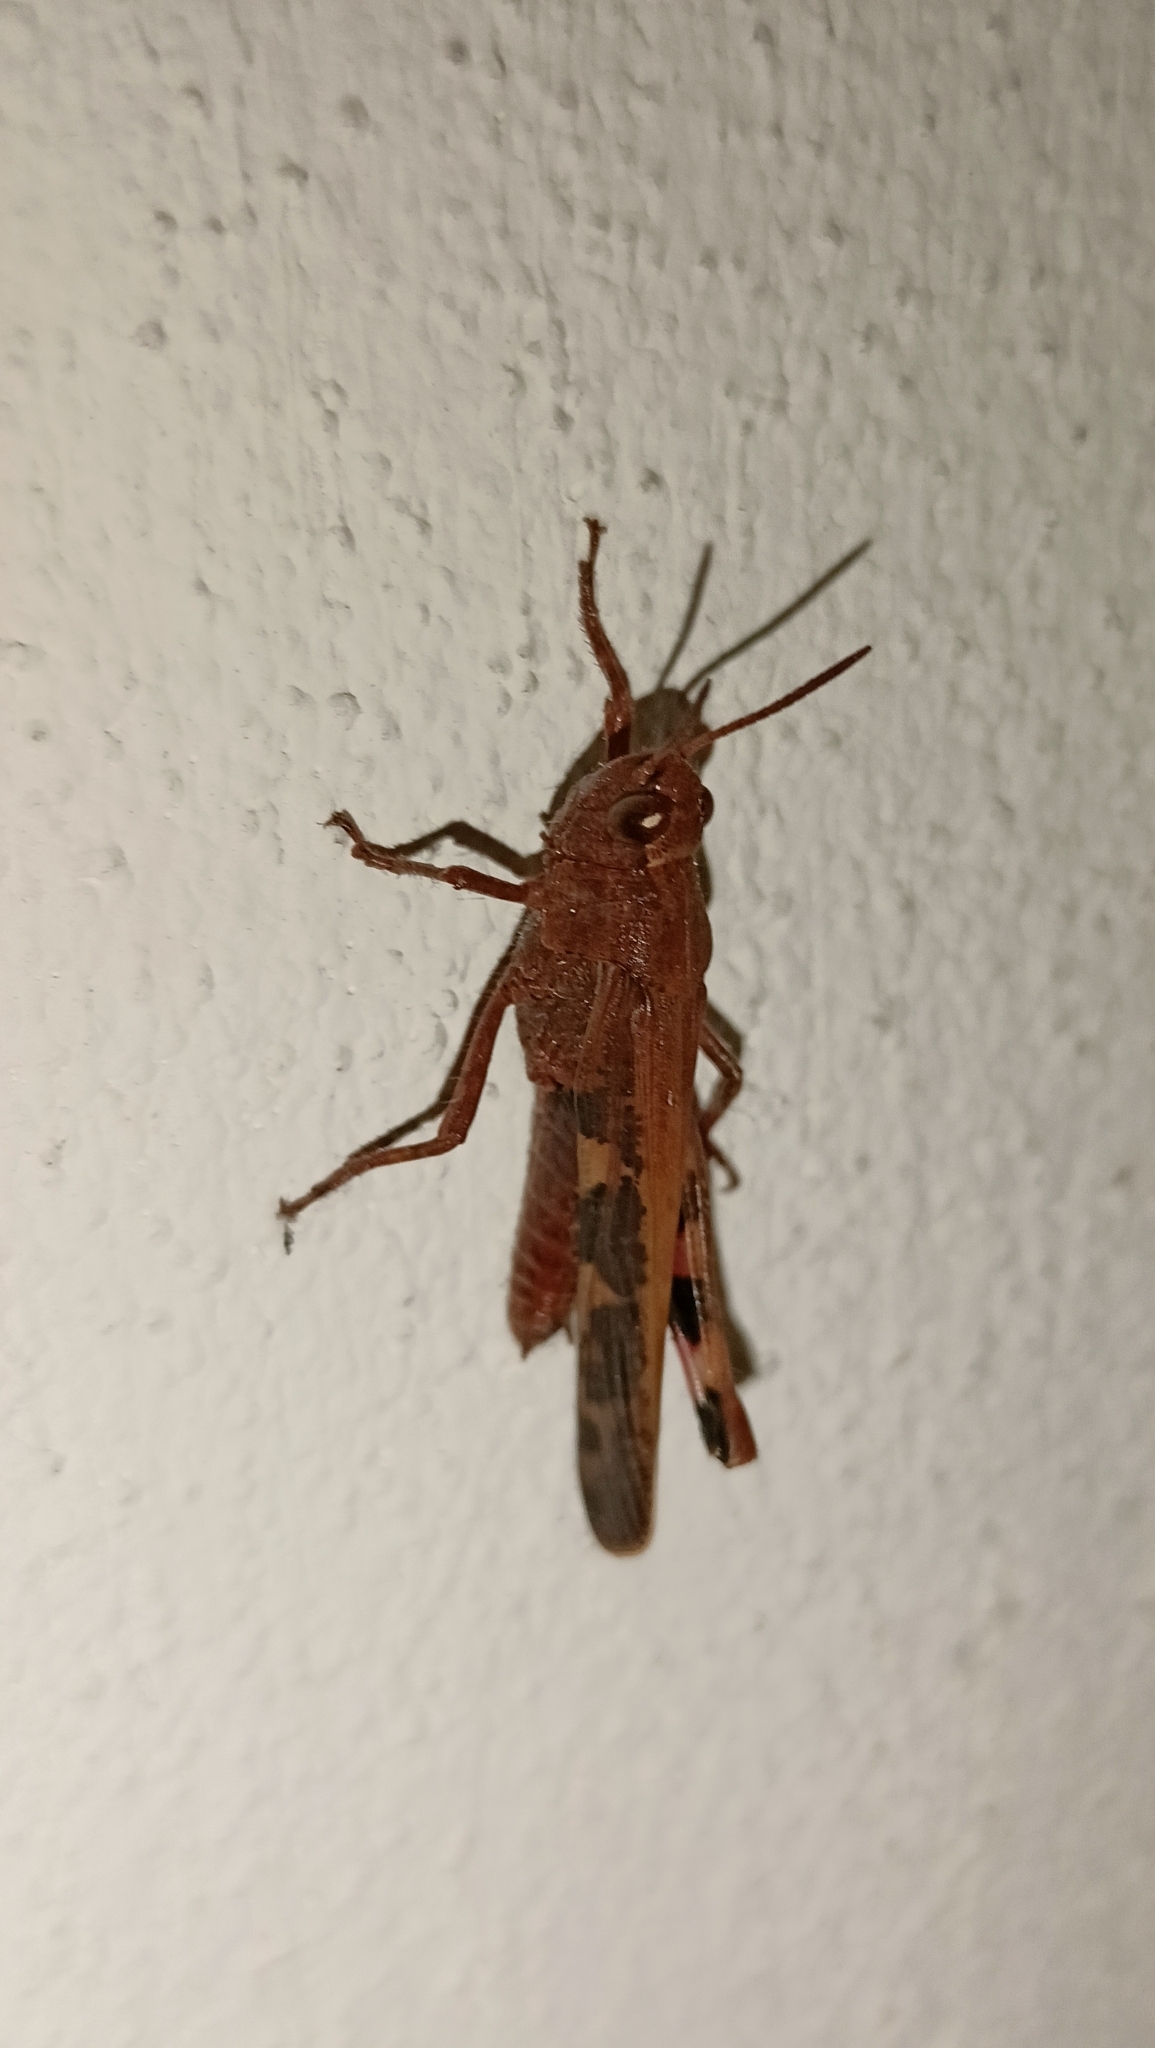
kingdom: Animalia
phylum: Arthropoda
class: Insecta
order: Orthoptera
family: Acrididae
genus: Aiolopus
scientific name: Aiolopus strepens
